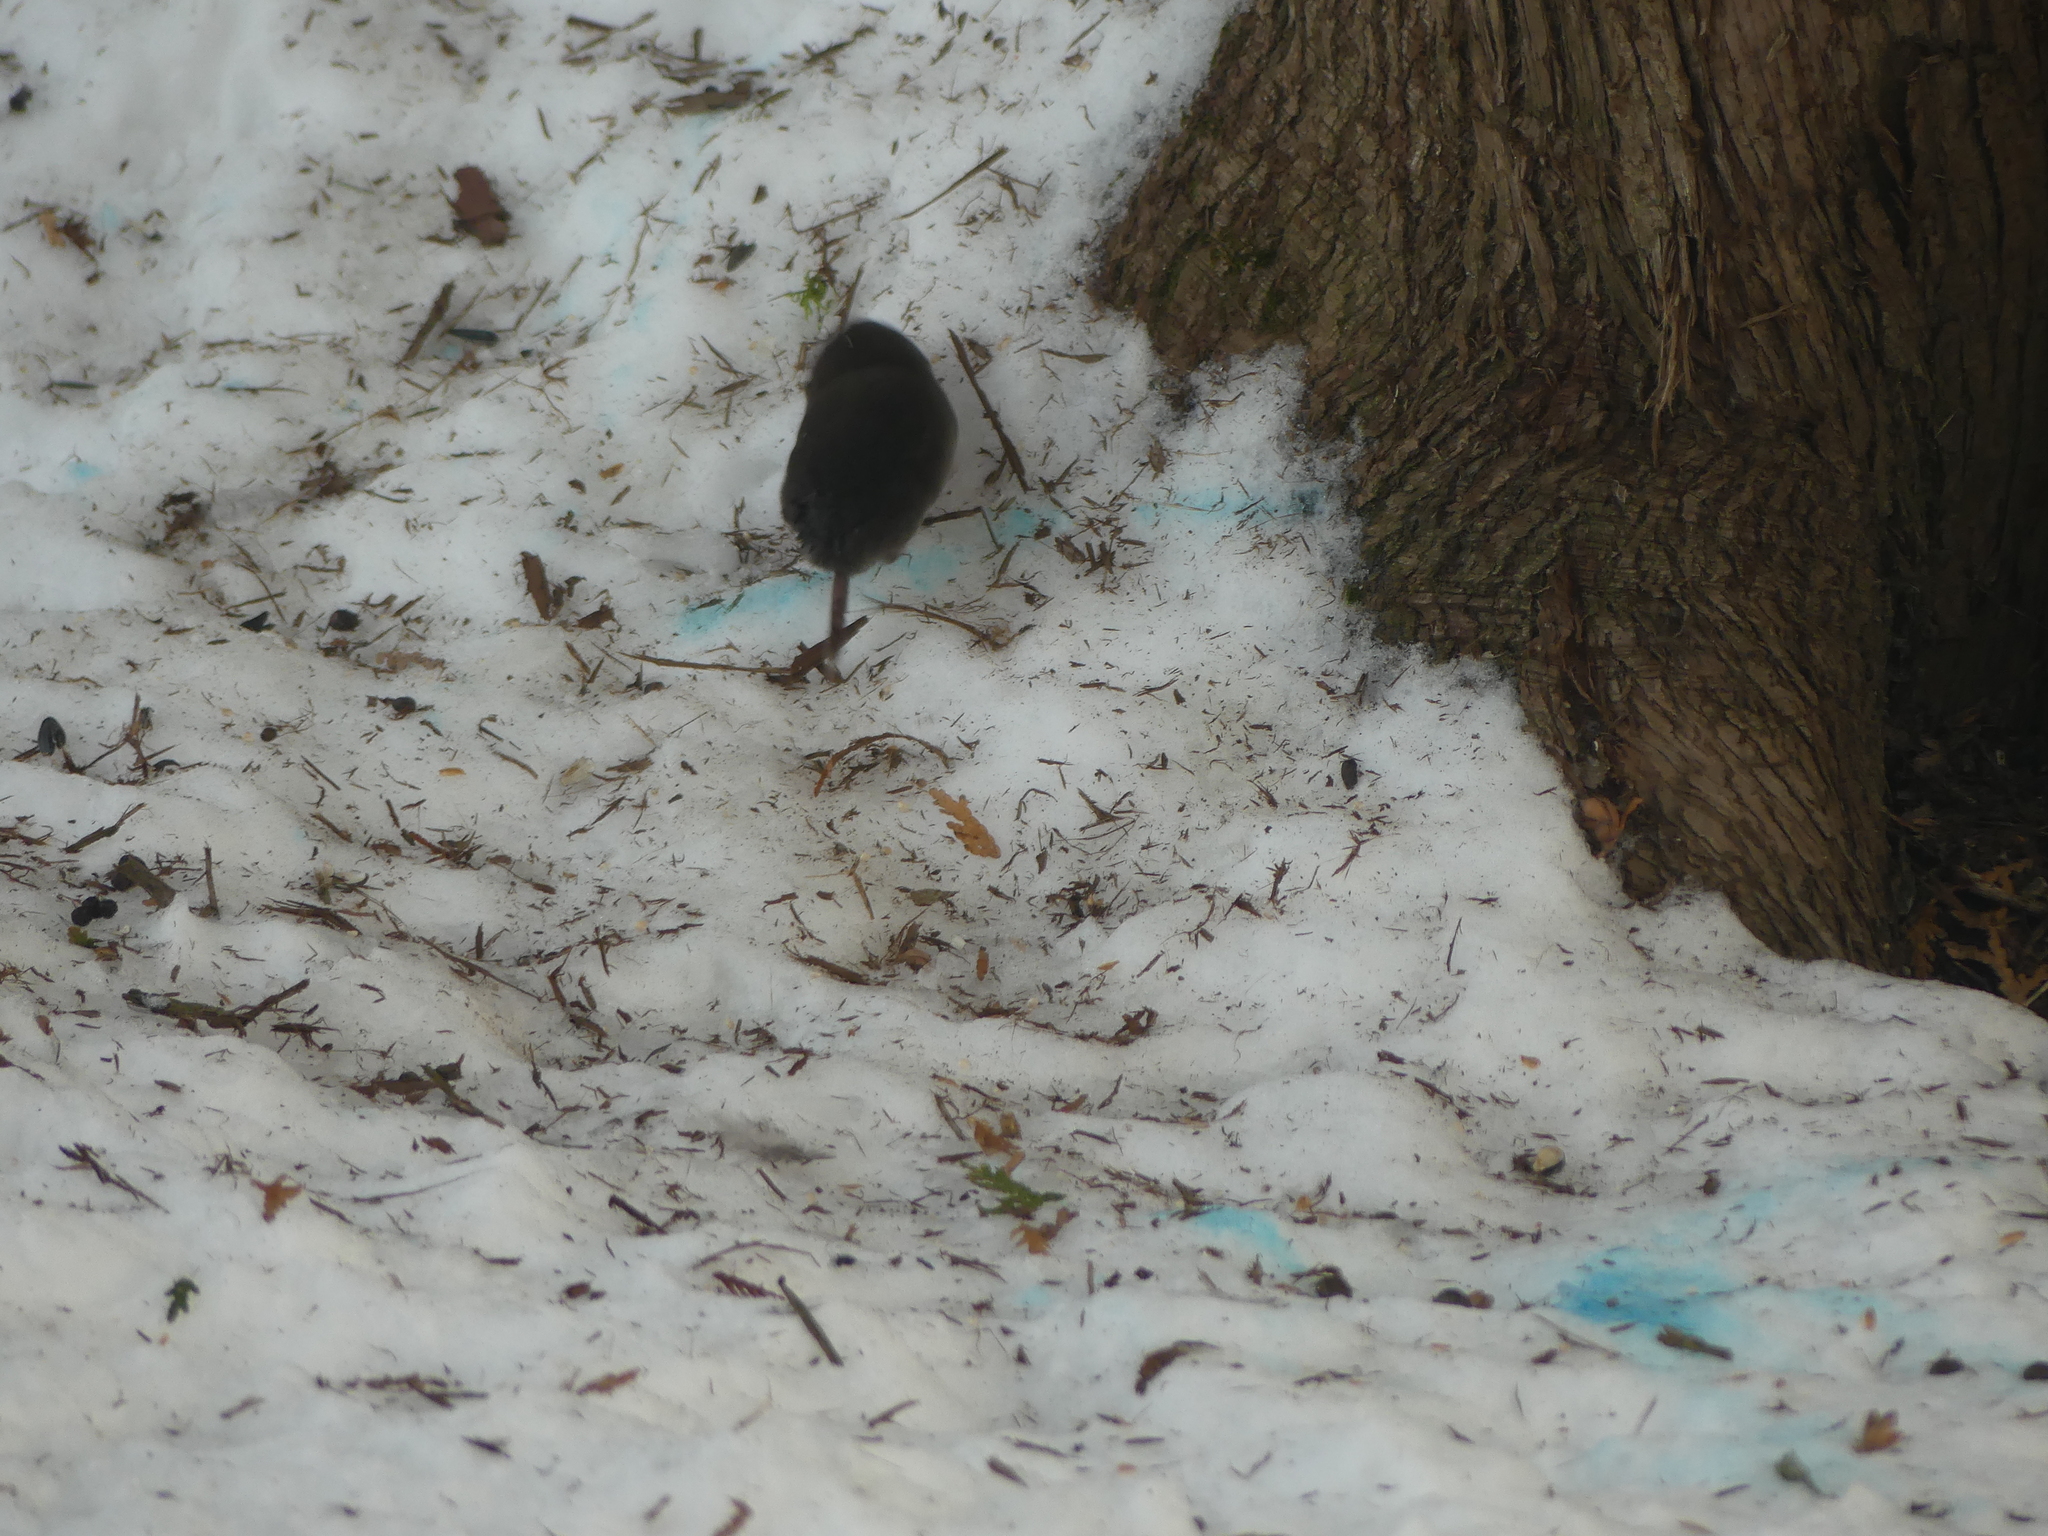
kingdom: Animalia
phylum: Chordata
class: Mammalia
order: Soricomorpha
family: Soricidae
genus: Blarina
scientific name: Blarina brevicauda
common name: Northern short-tailed shrew
